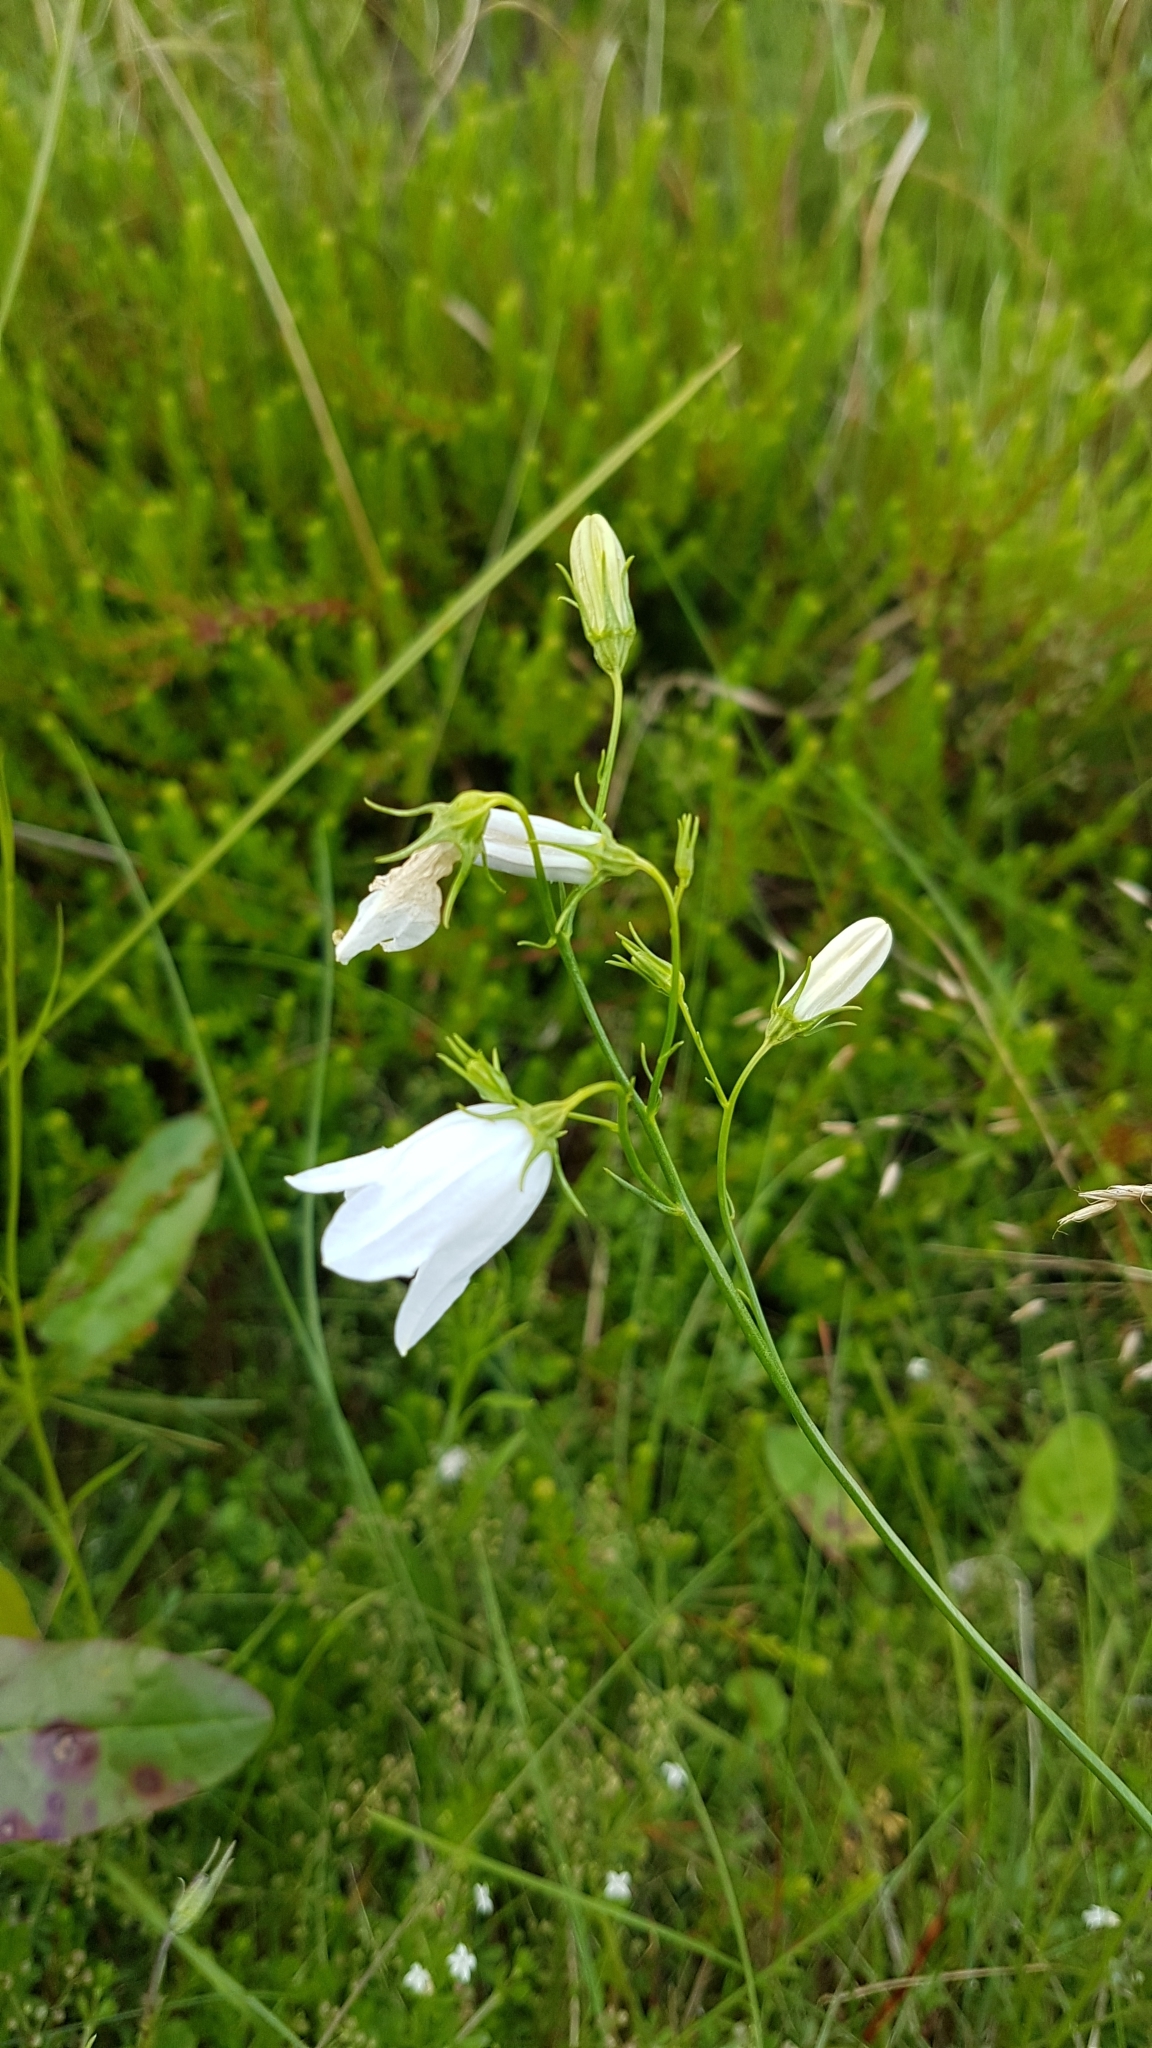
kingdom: Plantae
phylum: Tracheophyta
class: Magnoliopsida
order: Asterales
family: Campanulaceae
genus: Campanula
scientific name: Campanula rotundifolia
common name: Harebell
